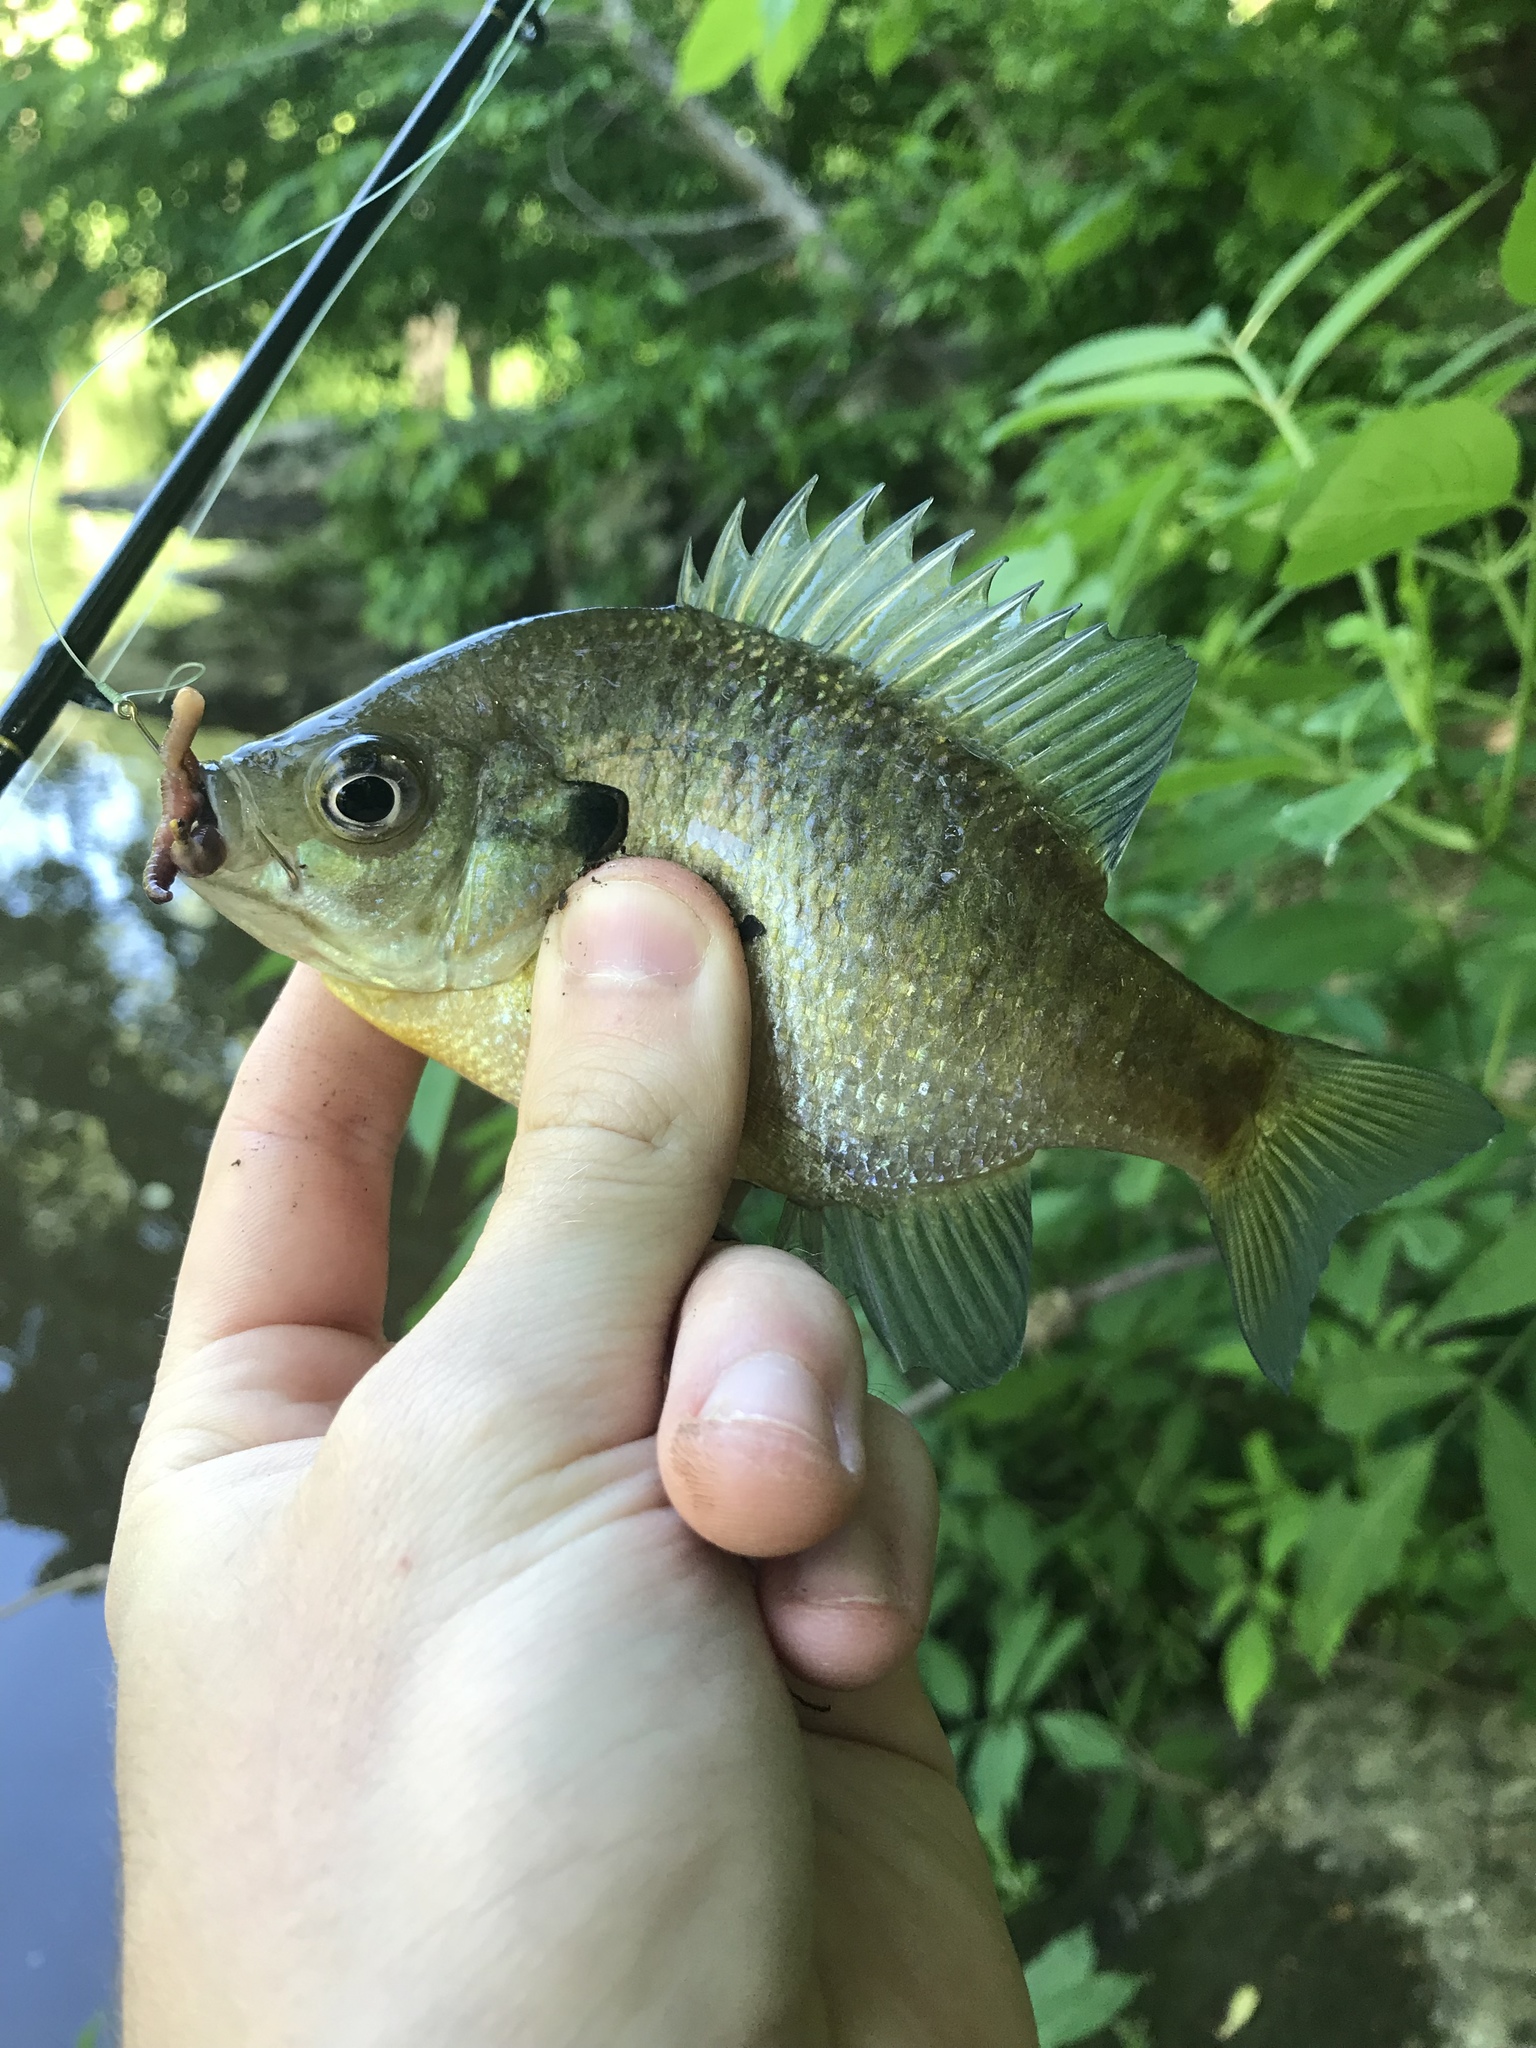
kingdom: Animalia
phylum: Chordata
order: Perciformes
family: Centrarchidae
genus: Lepomis
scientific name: Lepomis macrochirus
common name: Bluegill
